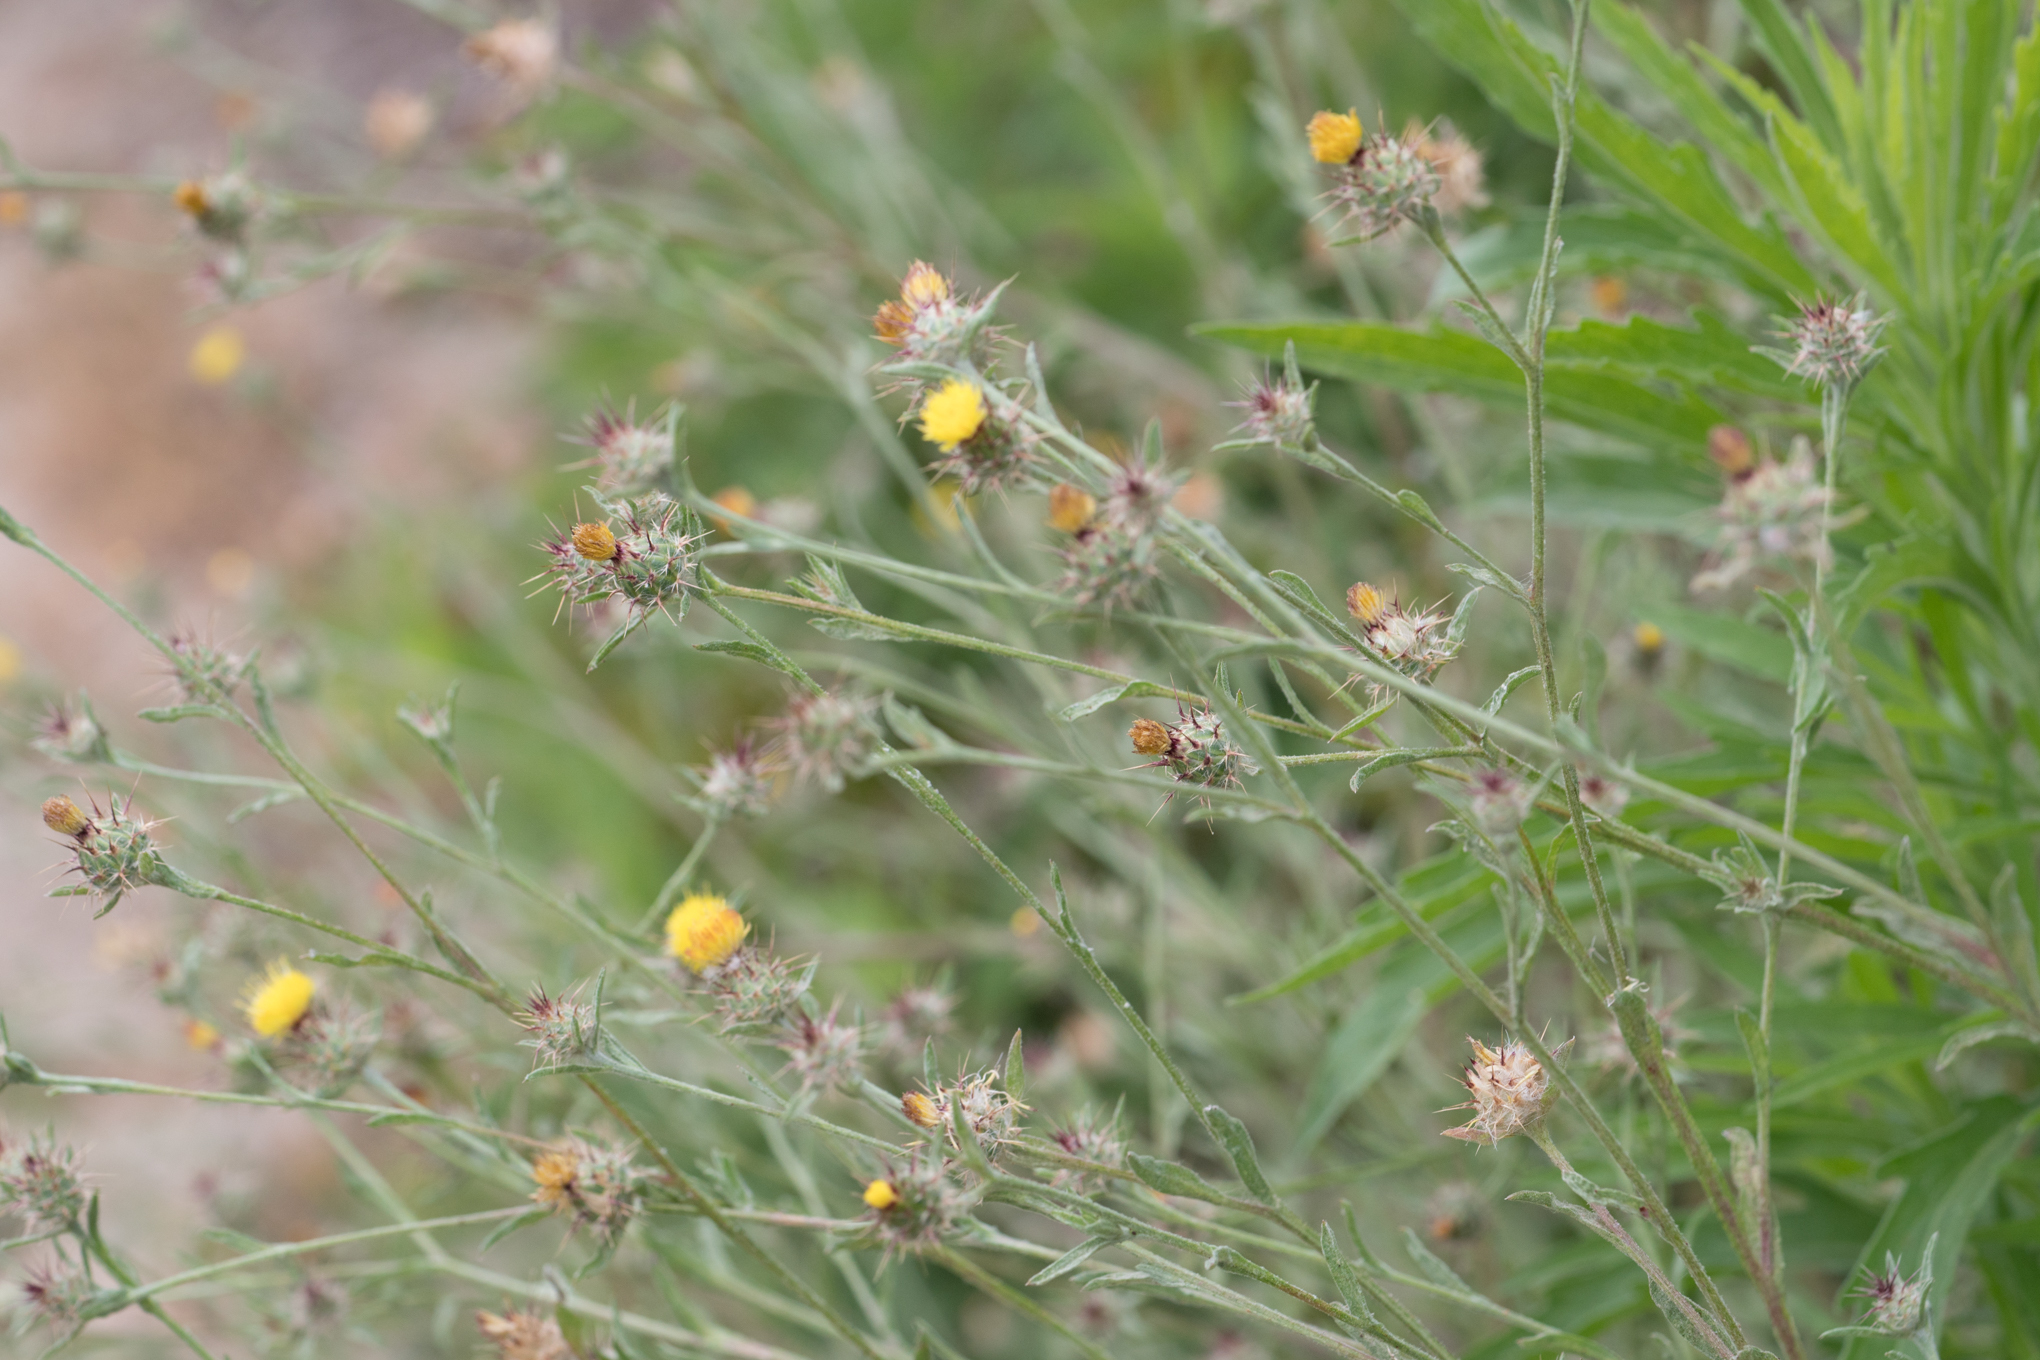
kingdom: Plantae
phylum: Tracheophyta
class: Magnoliopsida
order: Asterales
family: Asteraceae
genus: Centaurea
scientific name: Centaurea melitensis
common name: Maltese star-thistle
